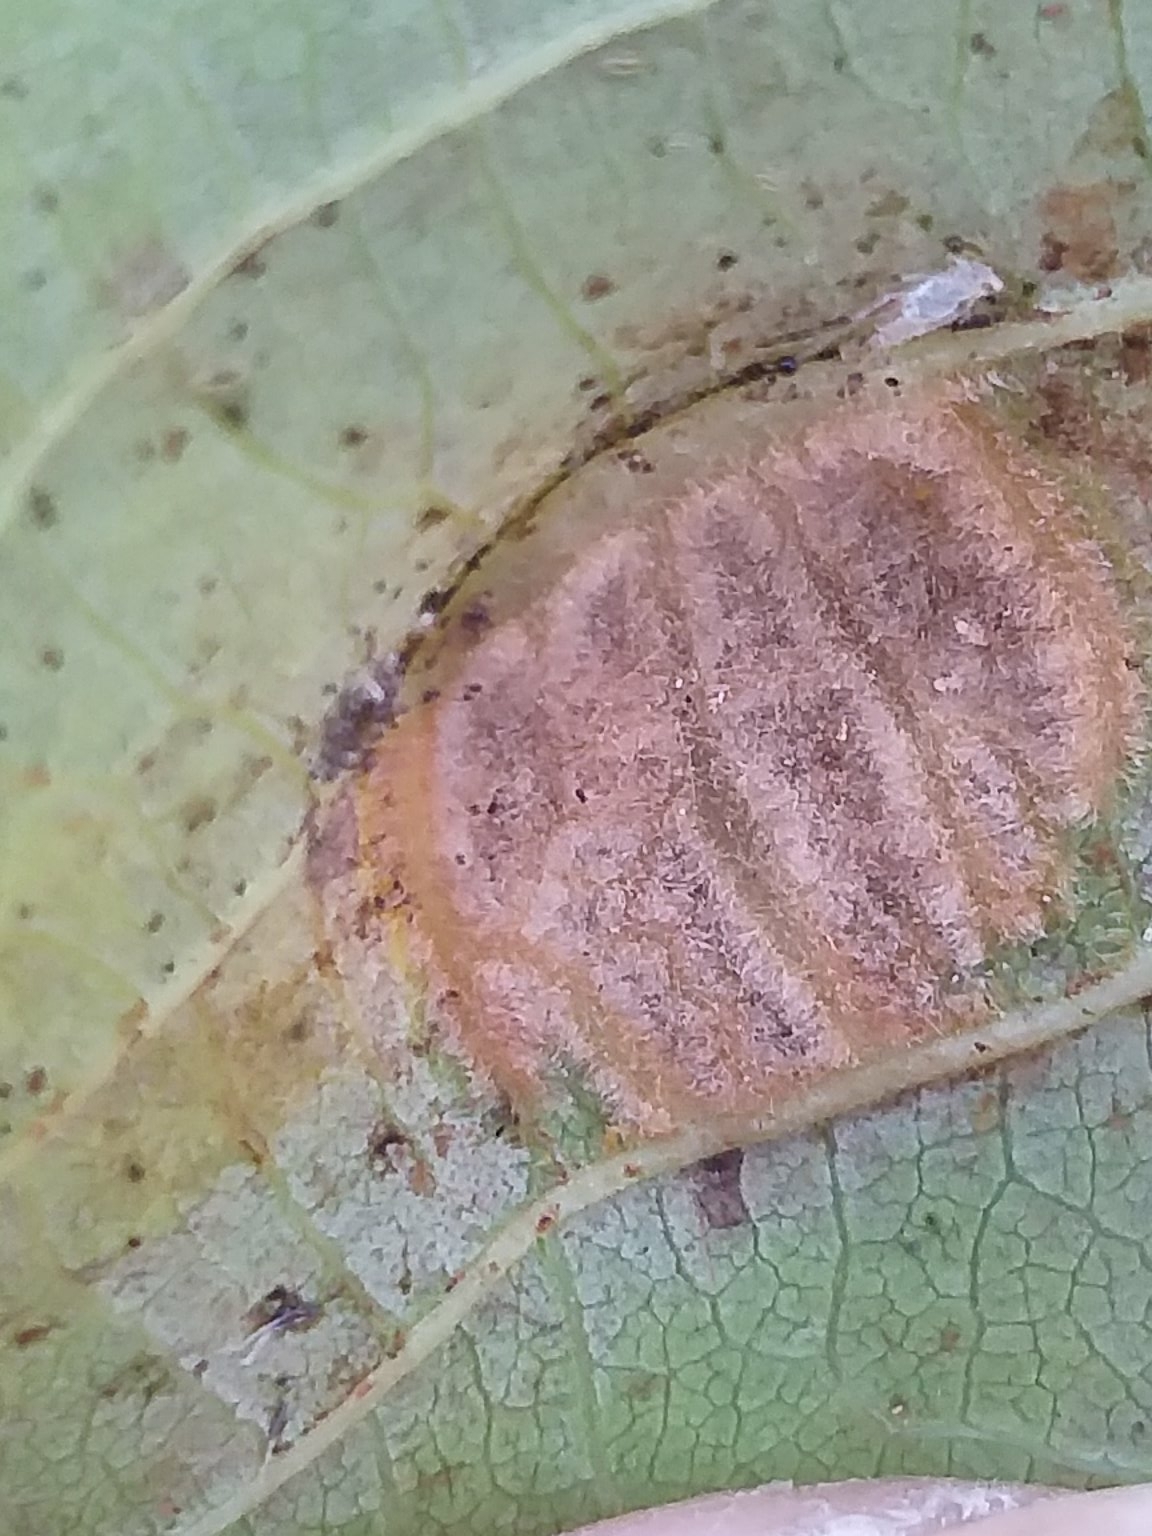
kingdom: Animalia
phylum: Arthropoda
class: Arachnida
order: Trombidiformes
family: Eriophyidae
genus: Aceria
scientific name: Aceria erinea
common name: Persian walnut erineum mite
